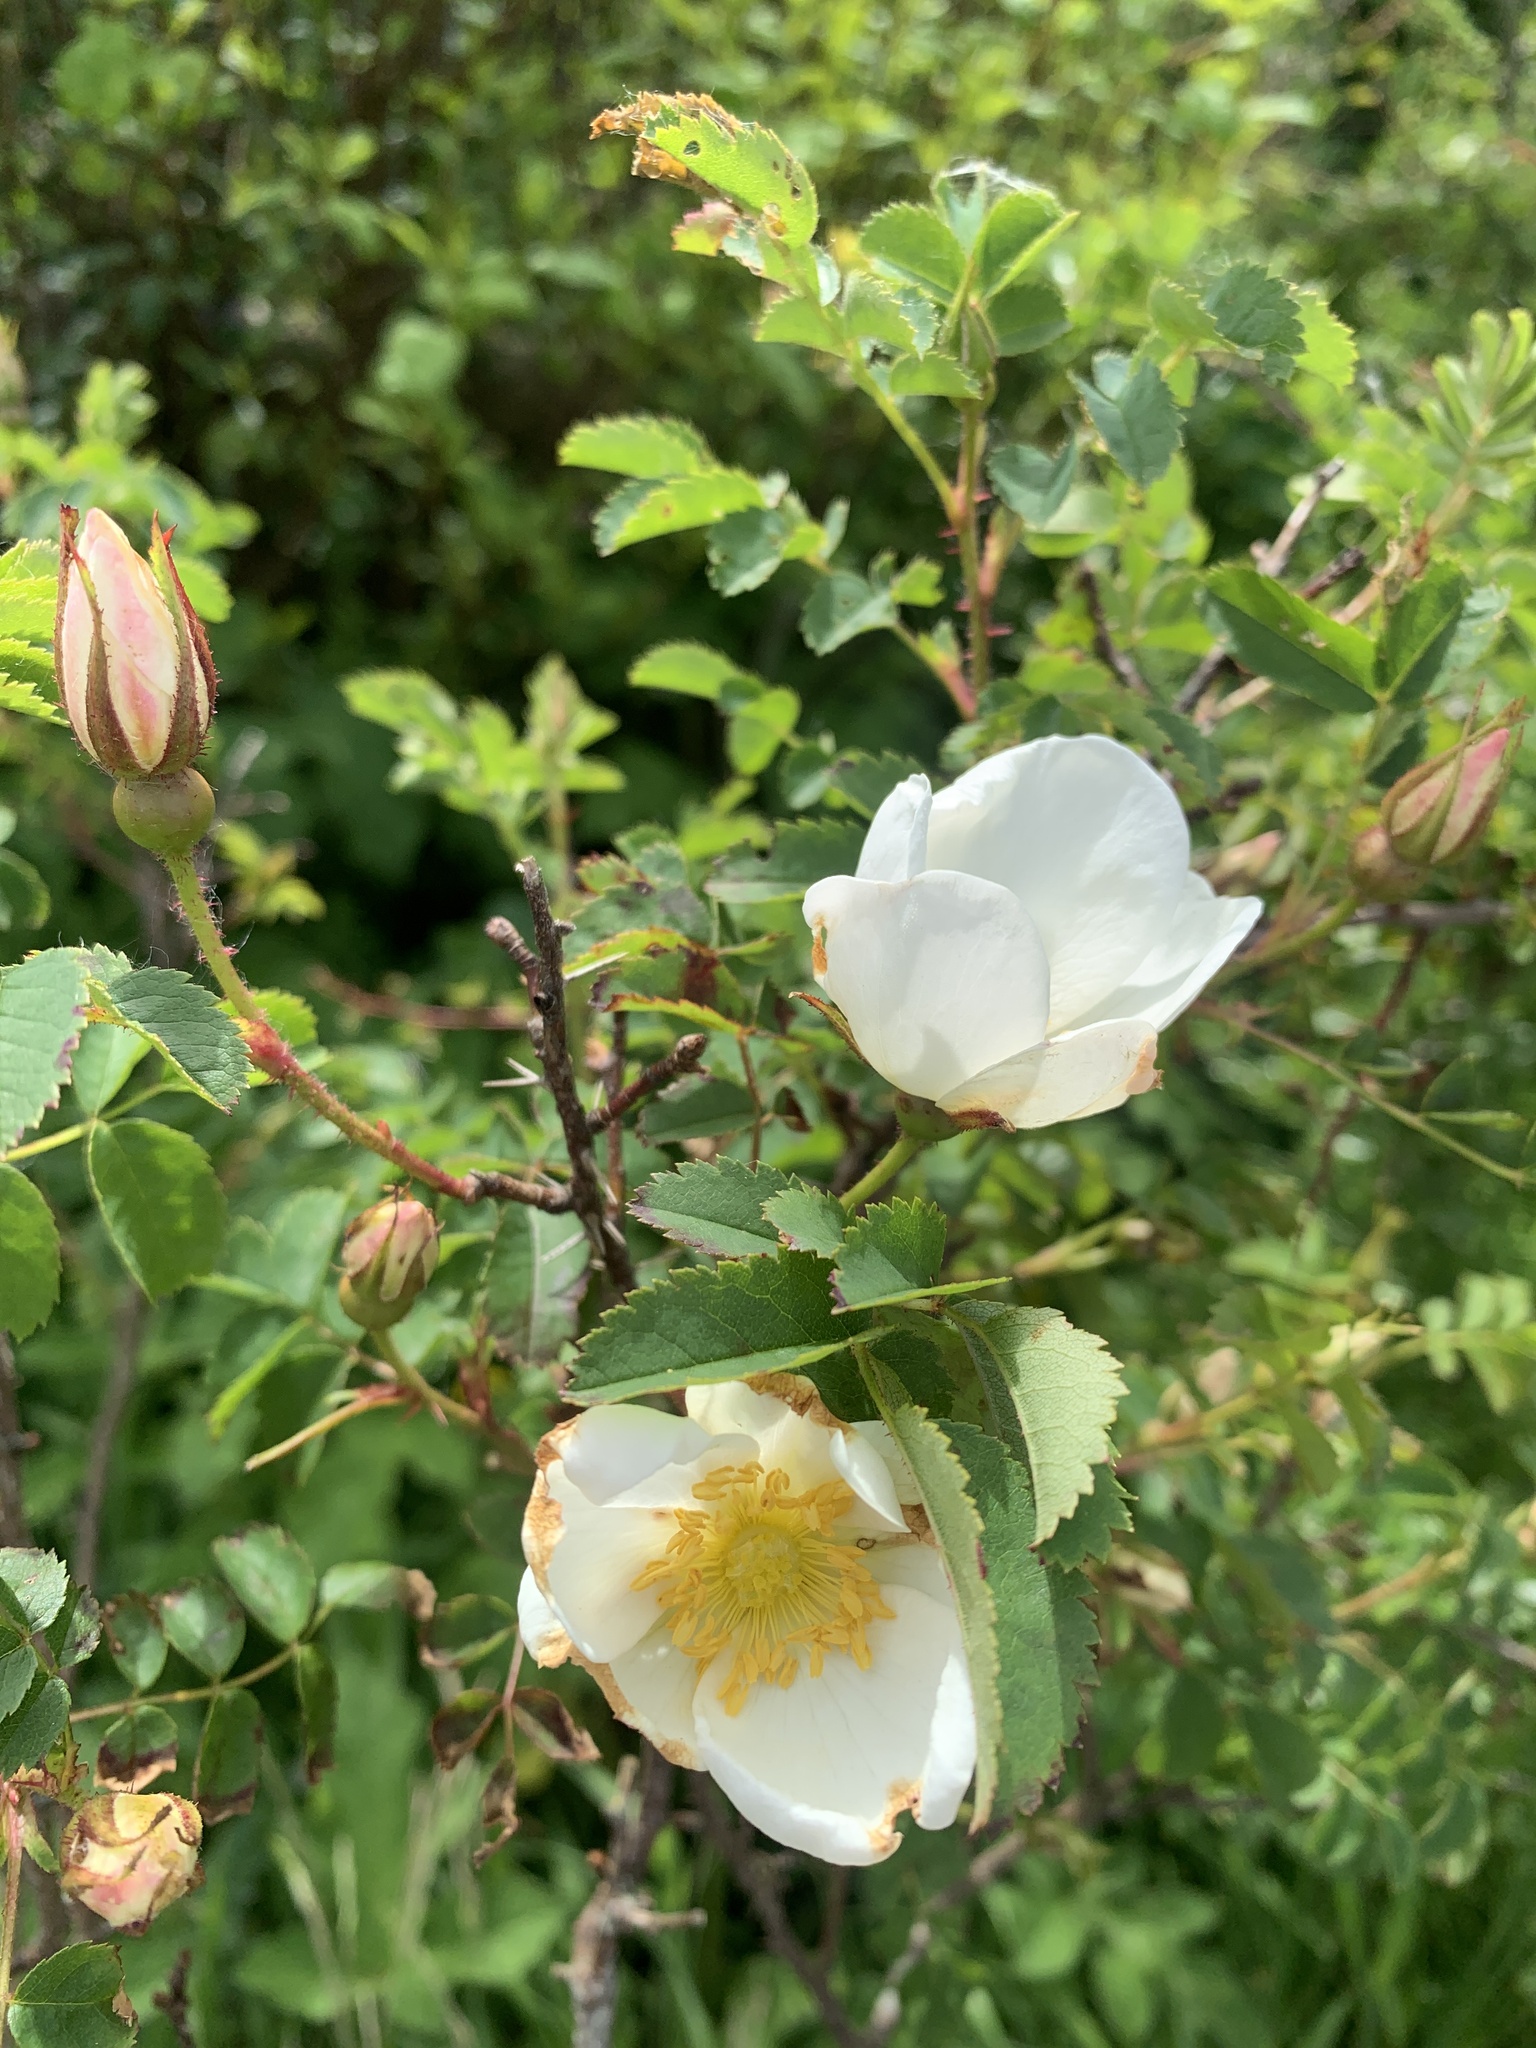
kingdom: Plantae
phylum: Tracheophyta
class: Magnoliopsida
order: Rosales
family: Rosaceae
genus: Rosa
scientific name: Rosa spinosissima
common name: Burnet rose
